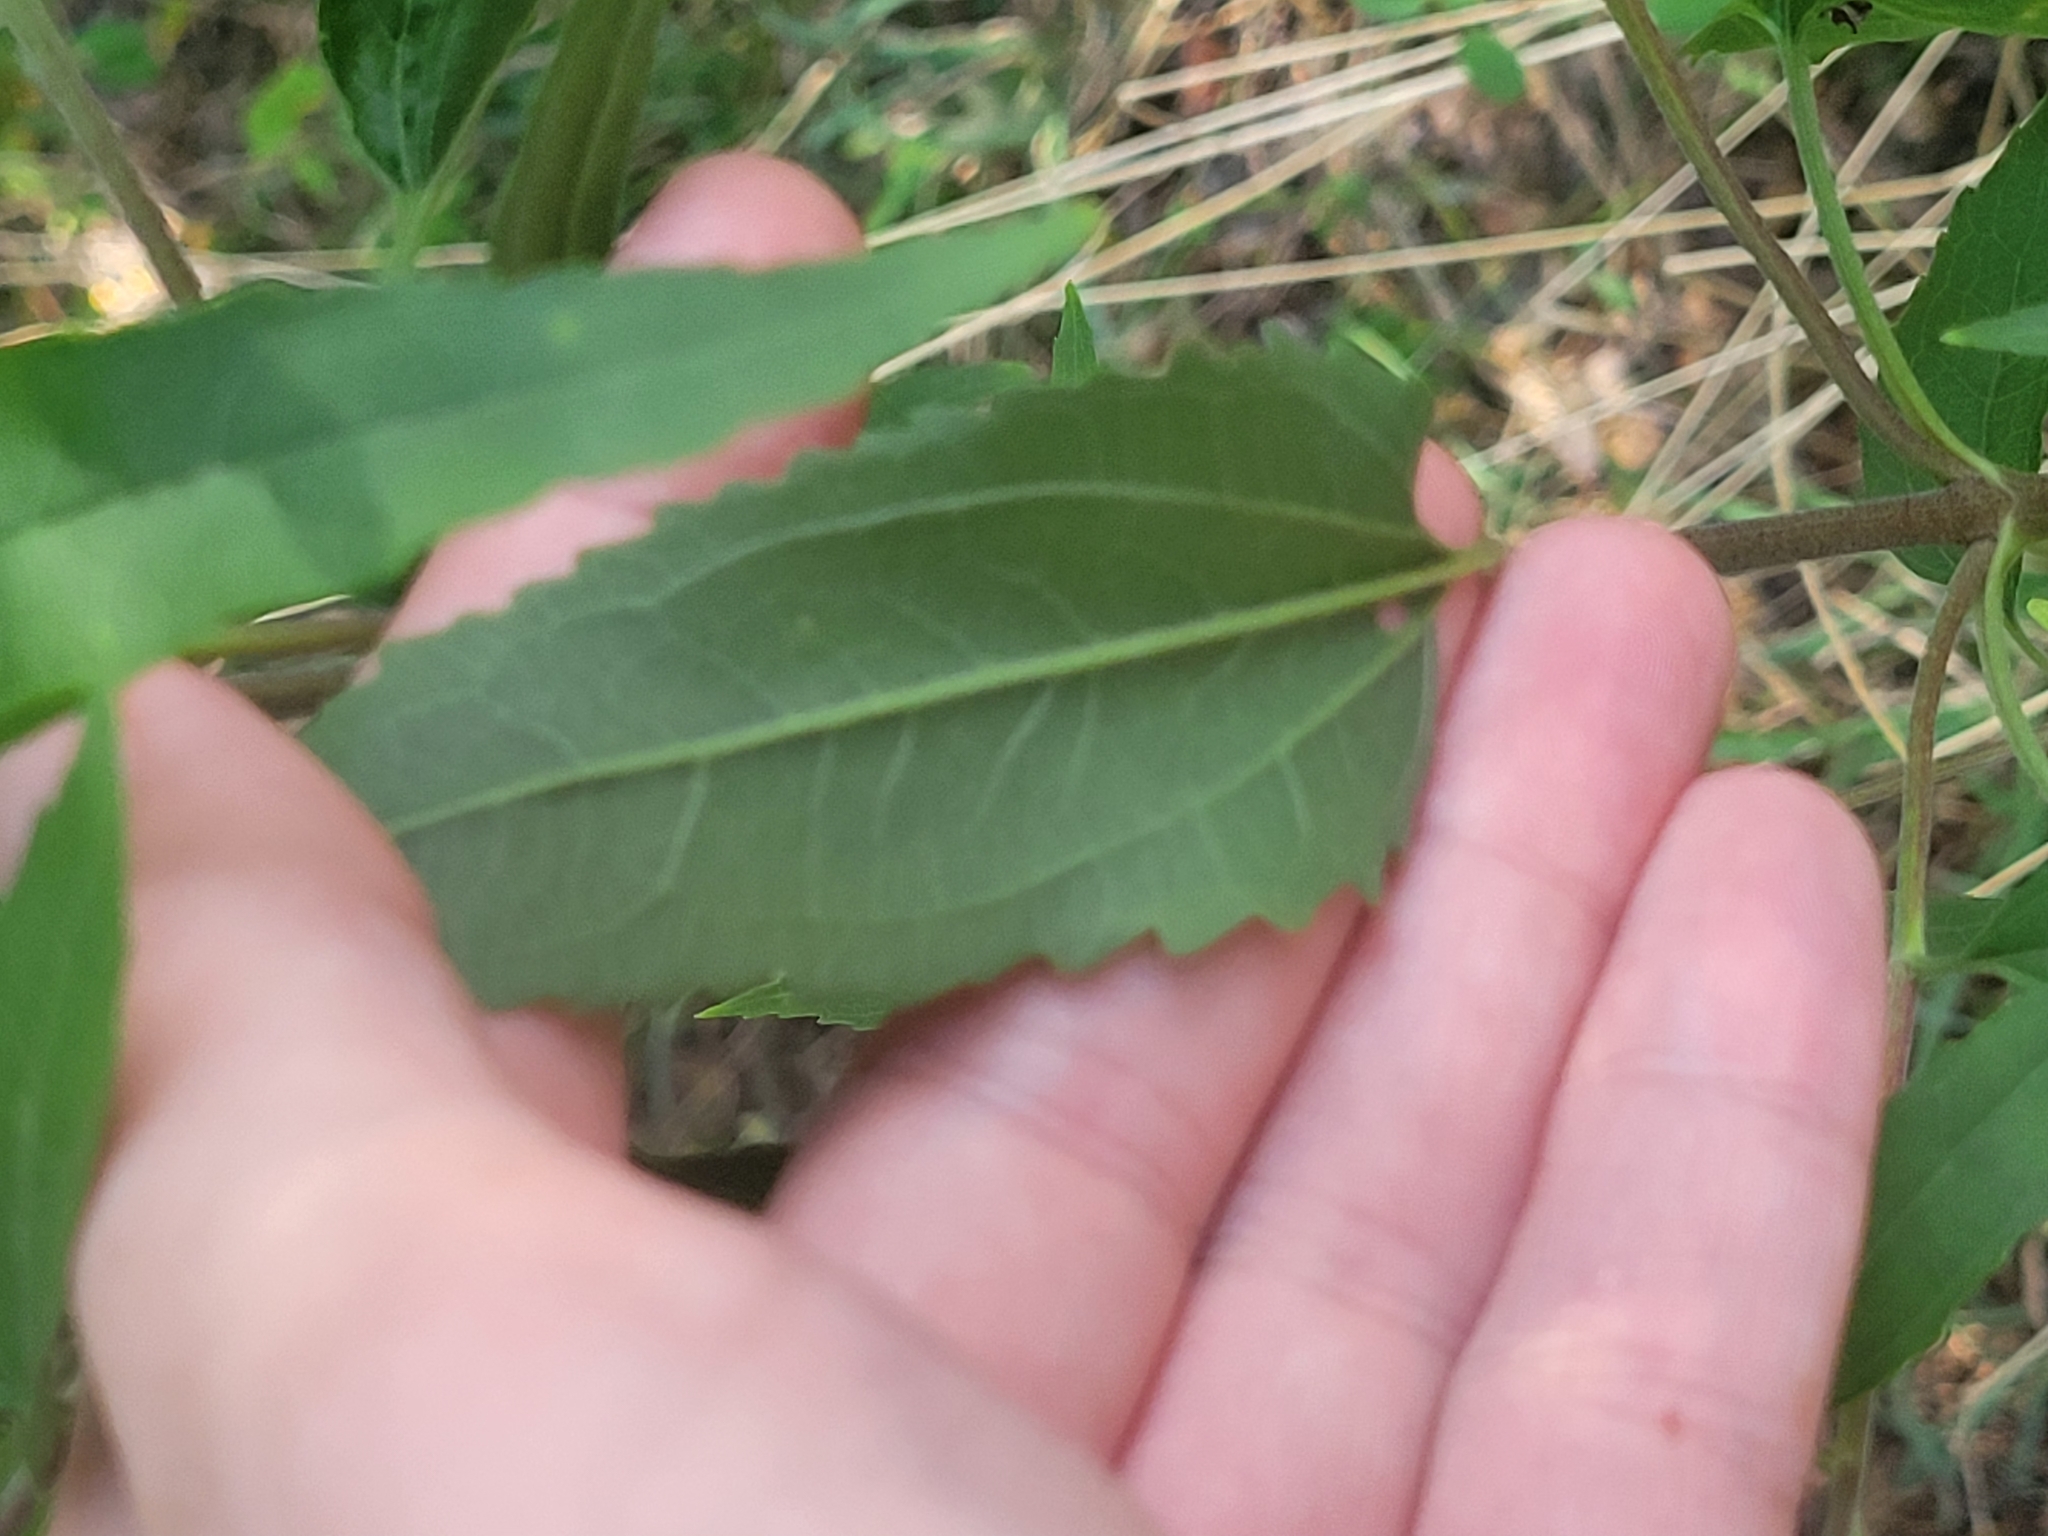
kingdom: Plantae
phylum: Tracheophyta
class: Magnoliopsida
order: Asterales
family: Asteraceae
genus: Eupatorium
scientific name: Eupatorium serotinum
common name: Late boneset
